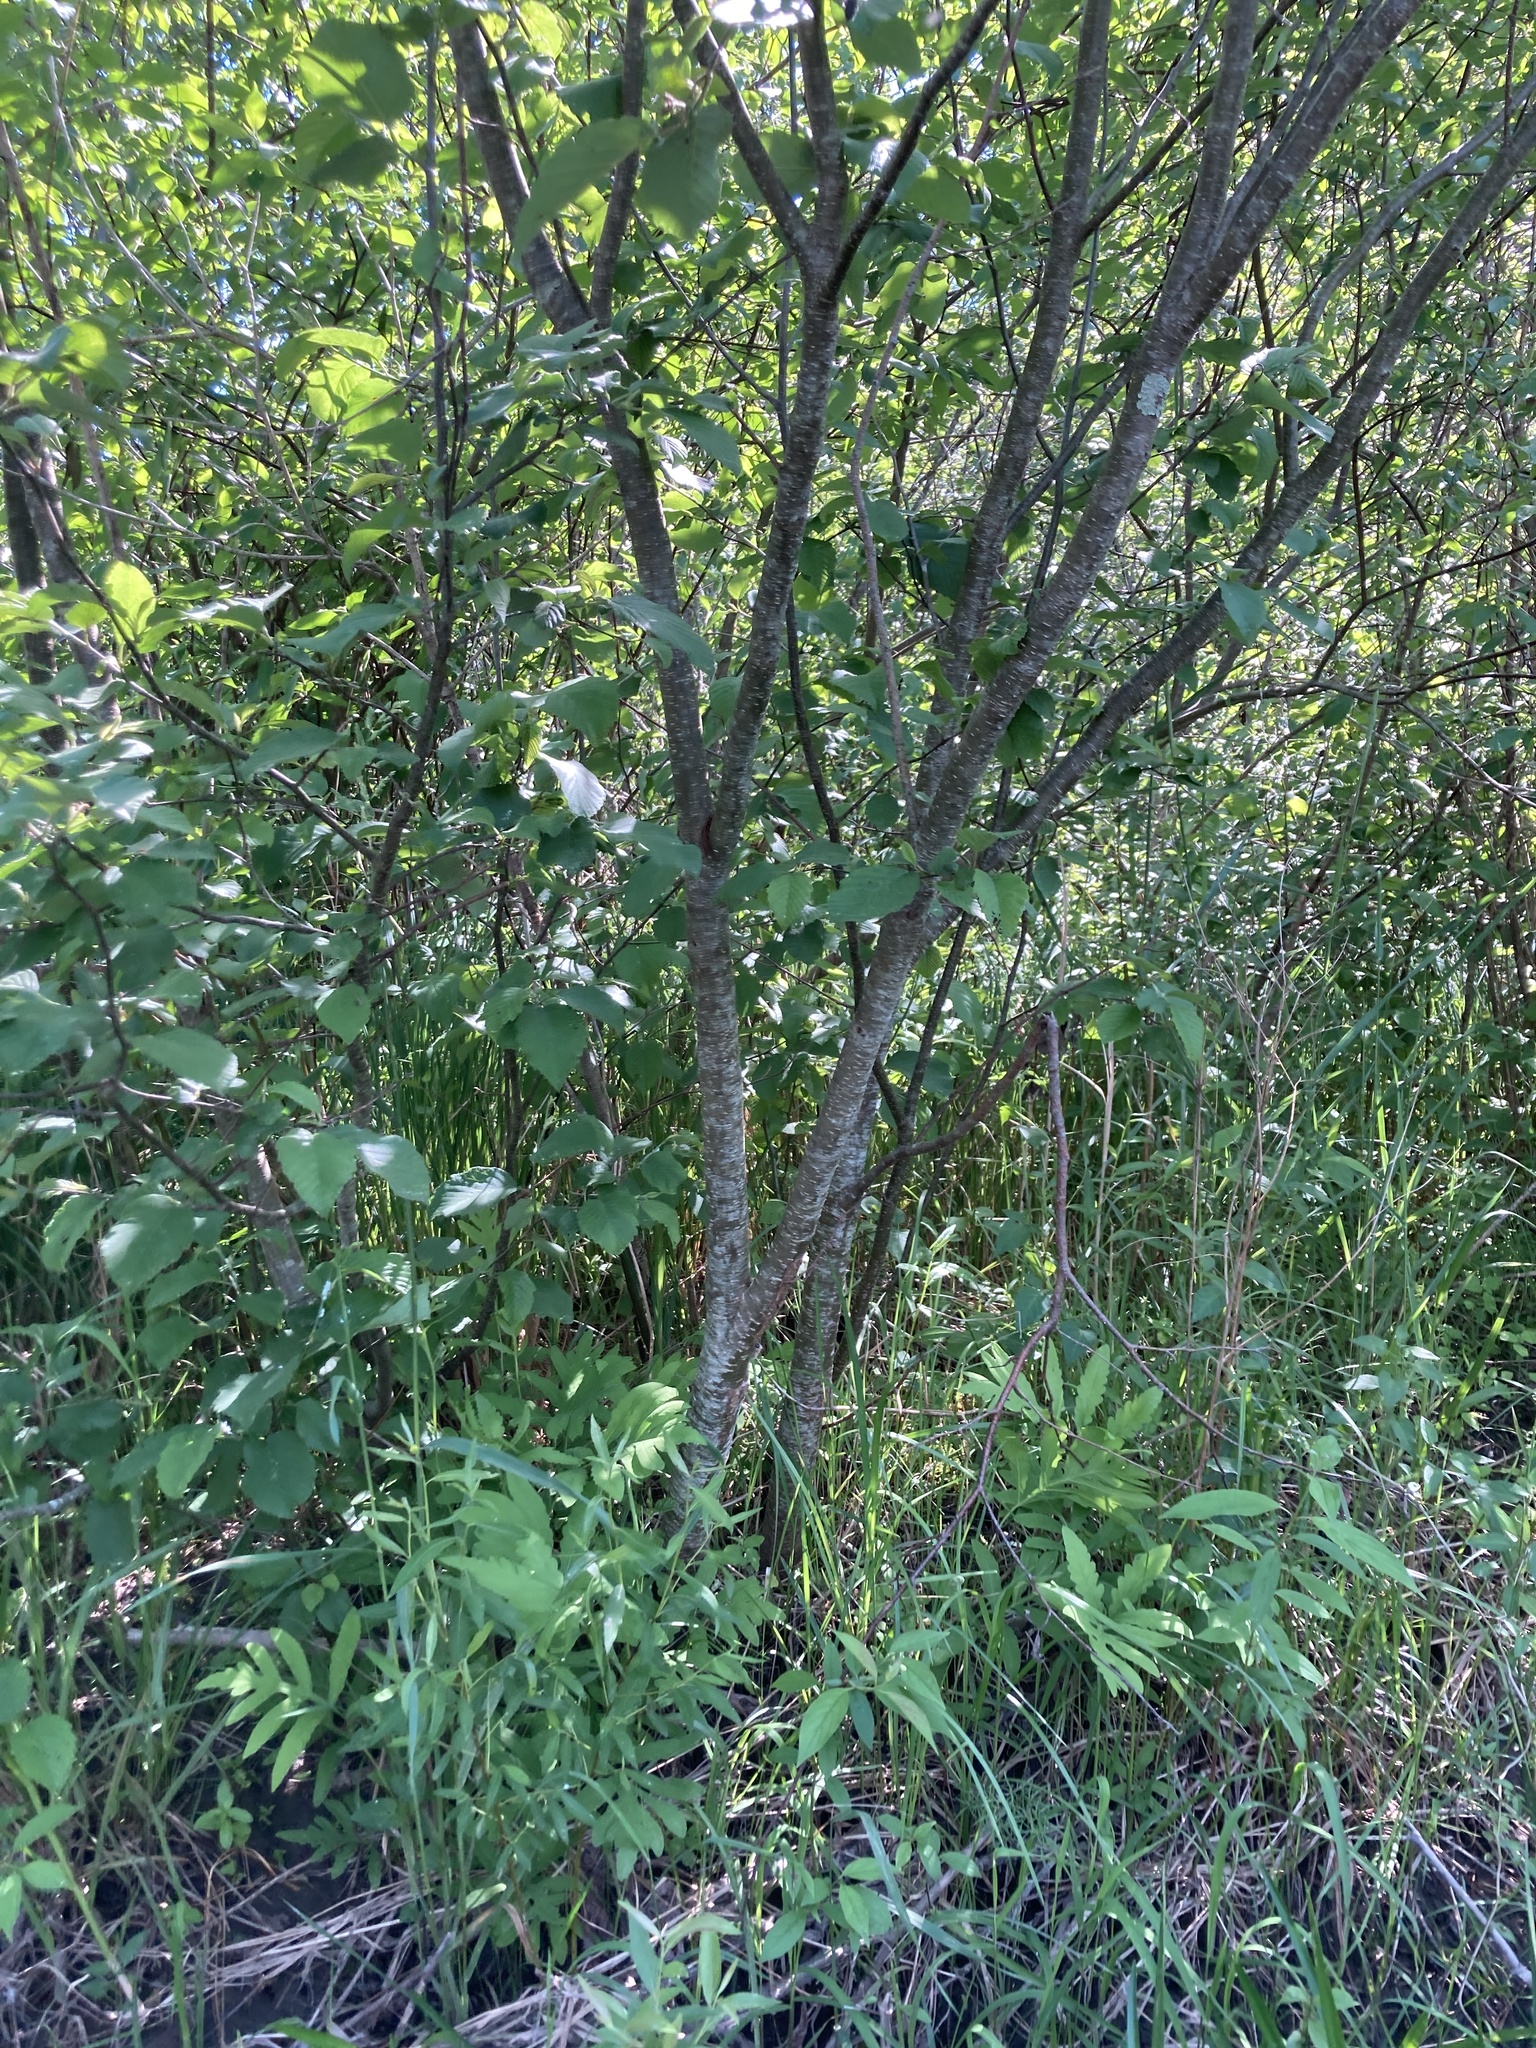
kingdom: Plantae
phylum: Tracheophyta
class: Magnoliopsida
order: Fagales
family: Betulaceae
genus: Alnus
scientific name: Alnus incana
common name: Grey alder
